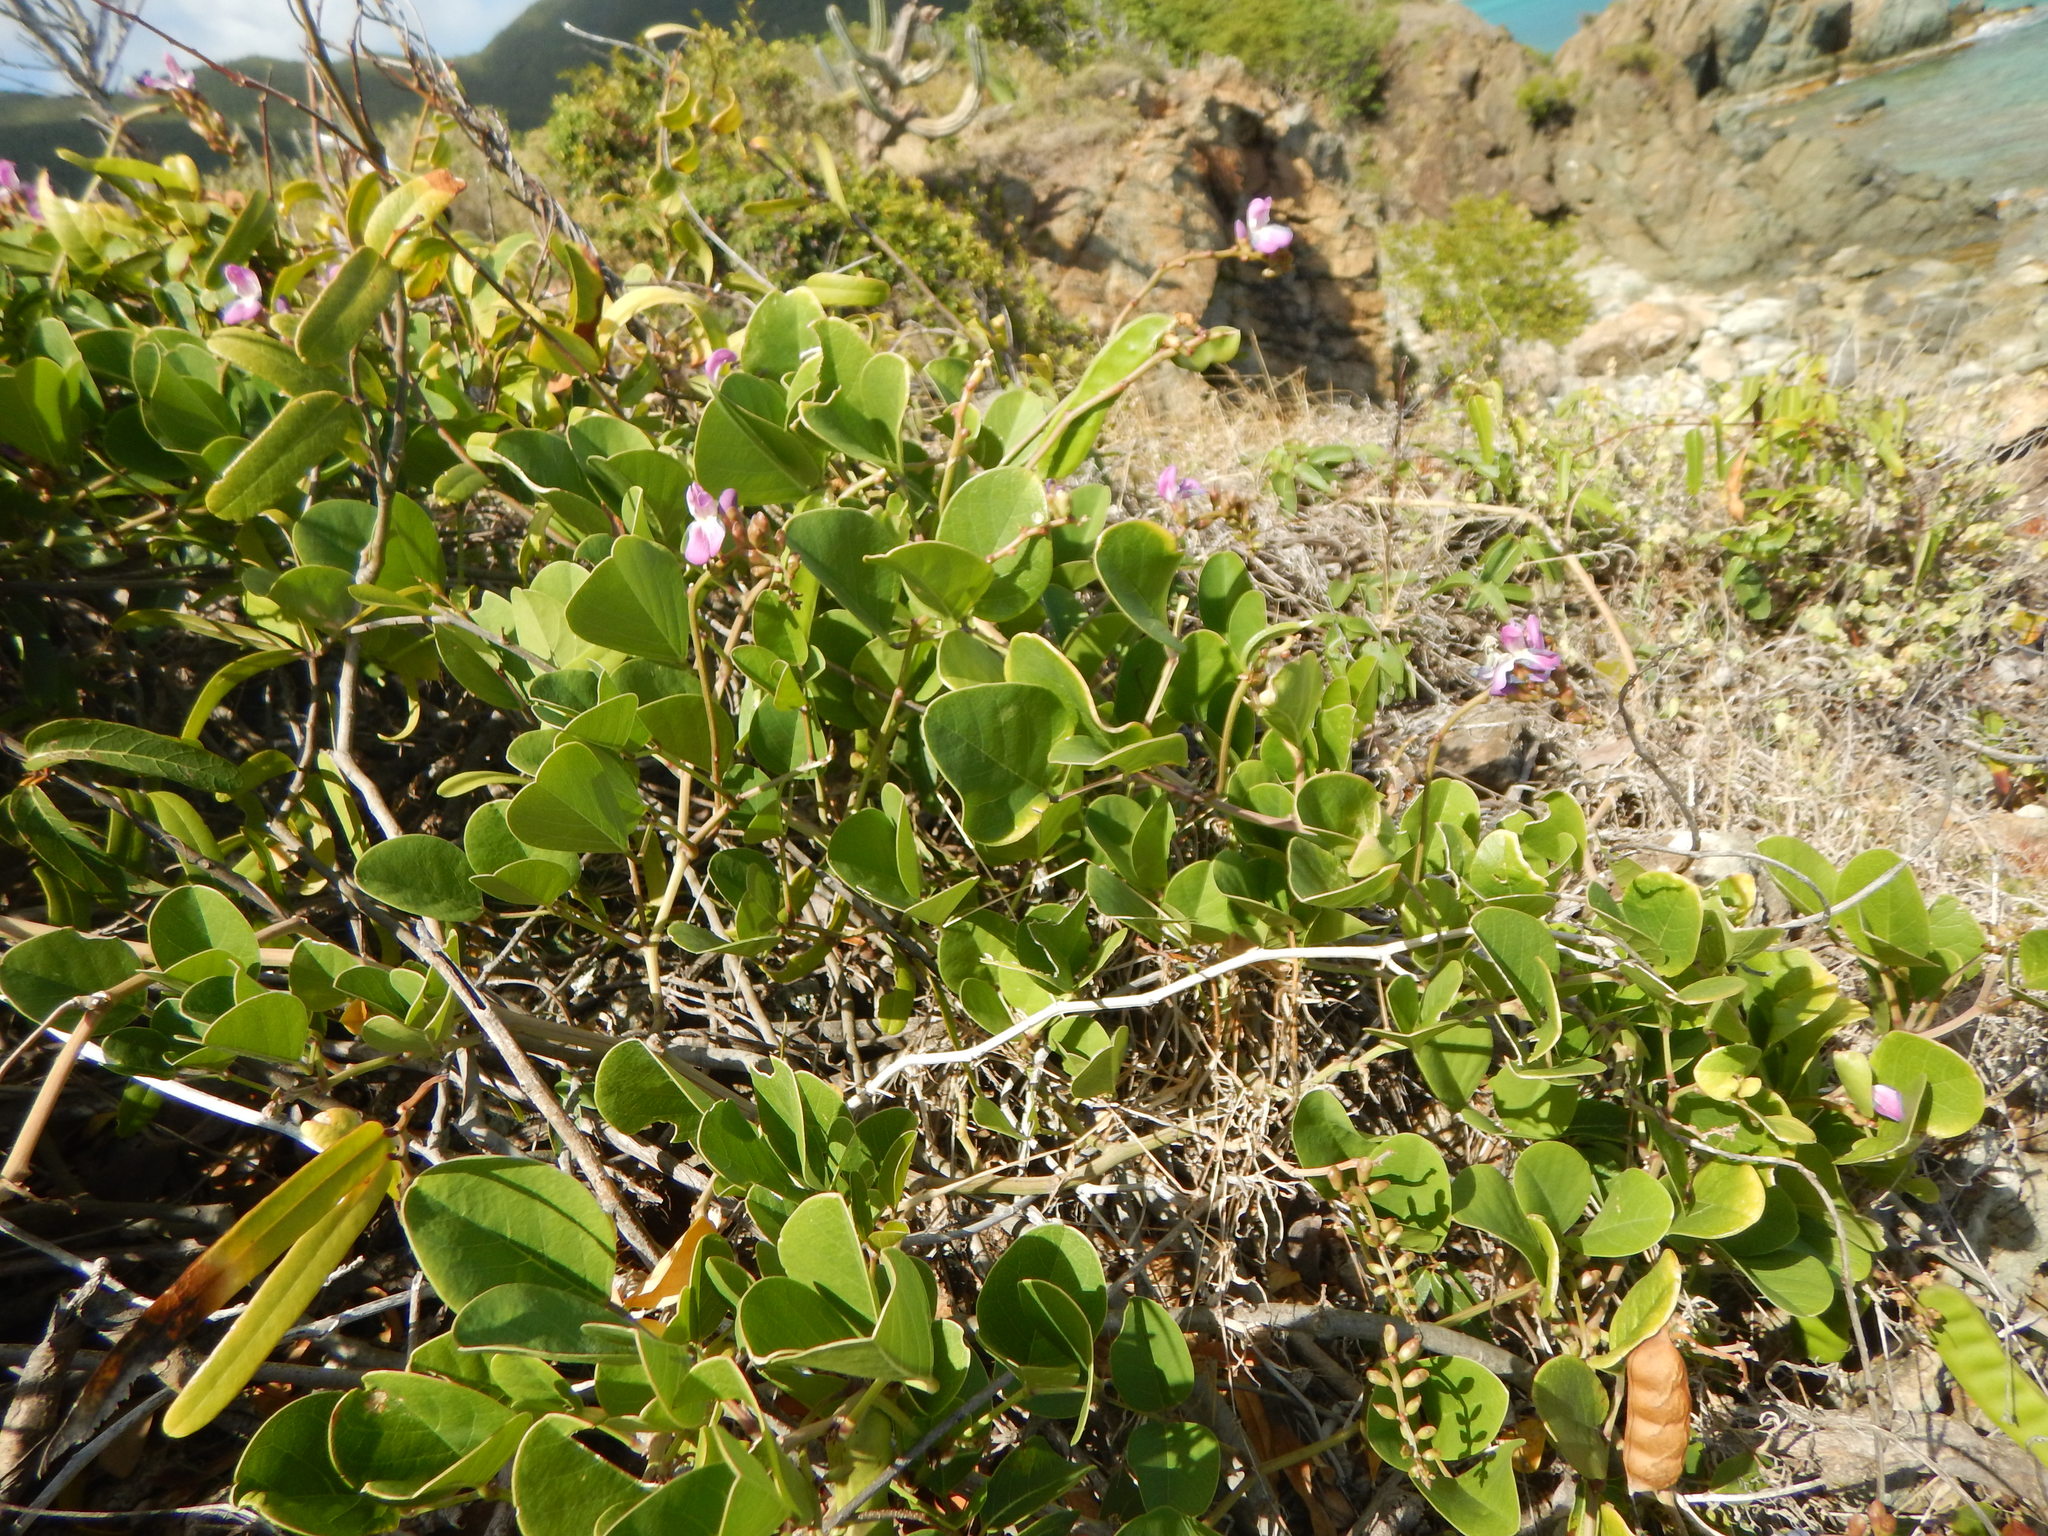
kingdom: Plantae
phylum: Tracheophyta
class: Magnoliopsida
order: Fabales
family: Fabaceae
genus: Canavalia
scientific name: Canavalia rosea
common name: Beach-bean
